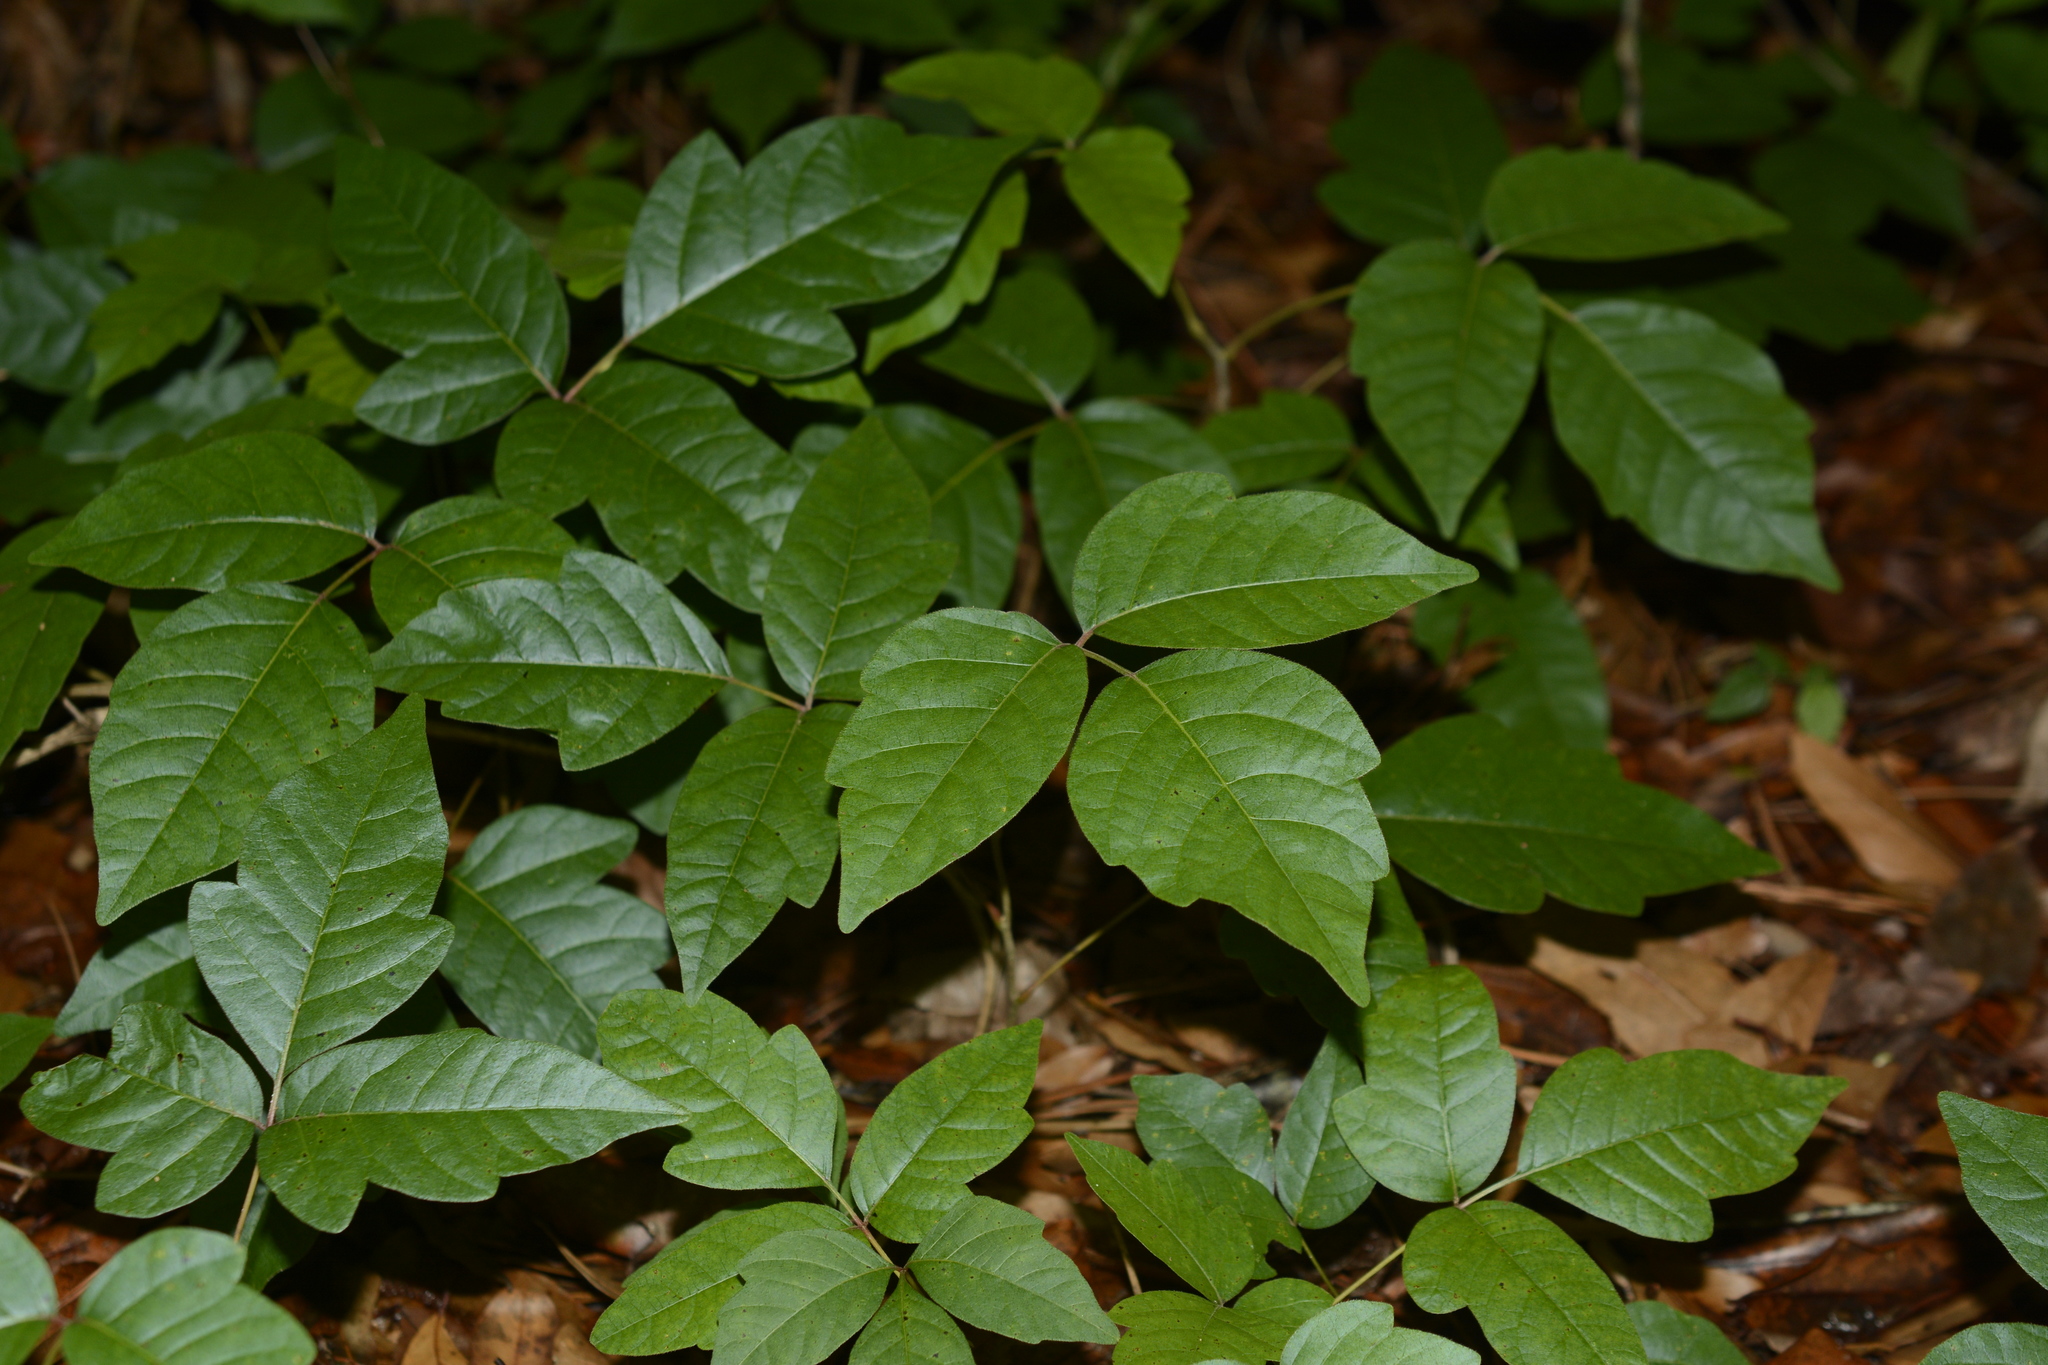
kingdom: Plantae
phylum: Tracheophyta
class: Magnoliopsida
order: Sapindales
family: Anacardiaceae
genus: Toxicodendron
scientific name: Toxicodendron radicans
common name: Poison ivy
